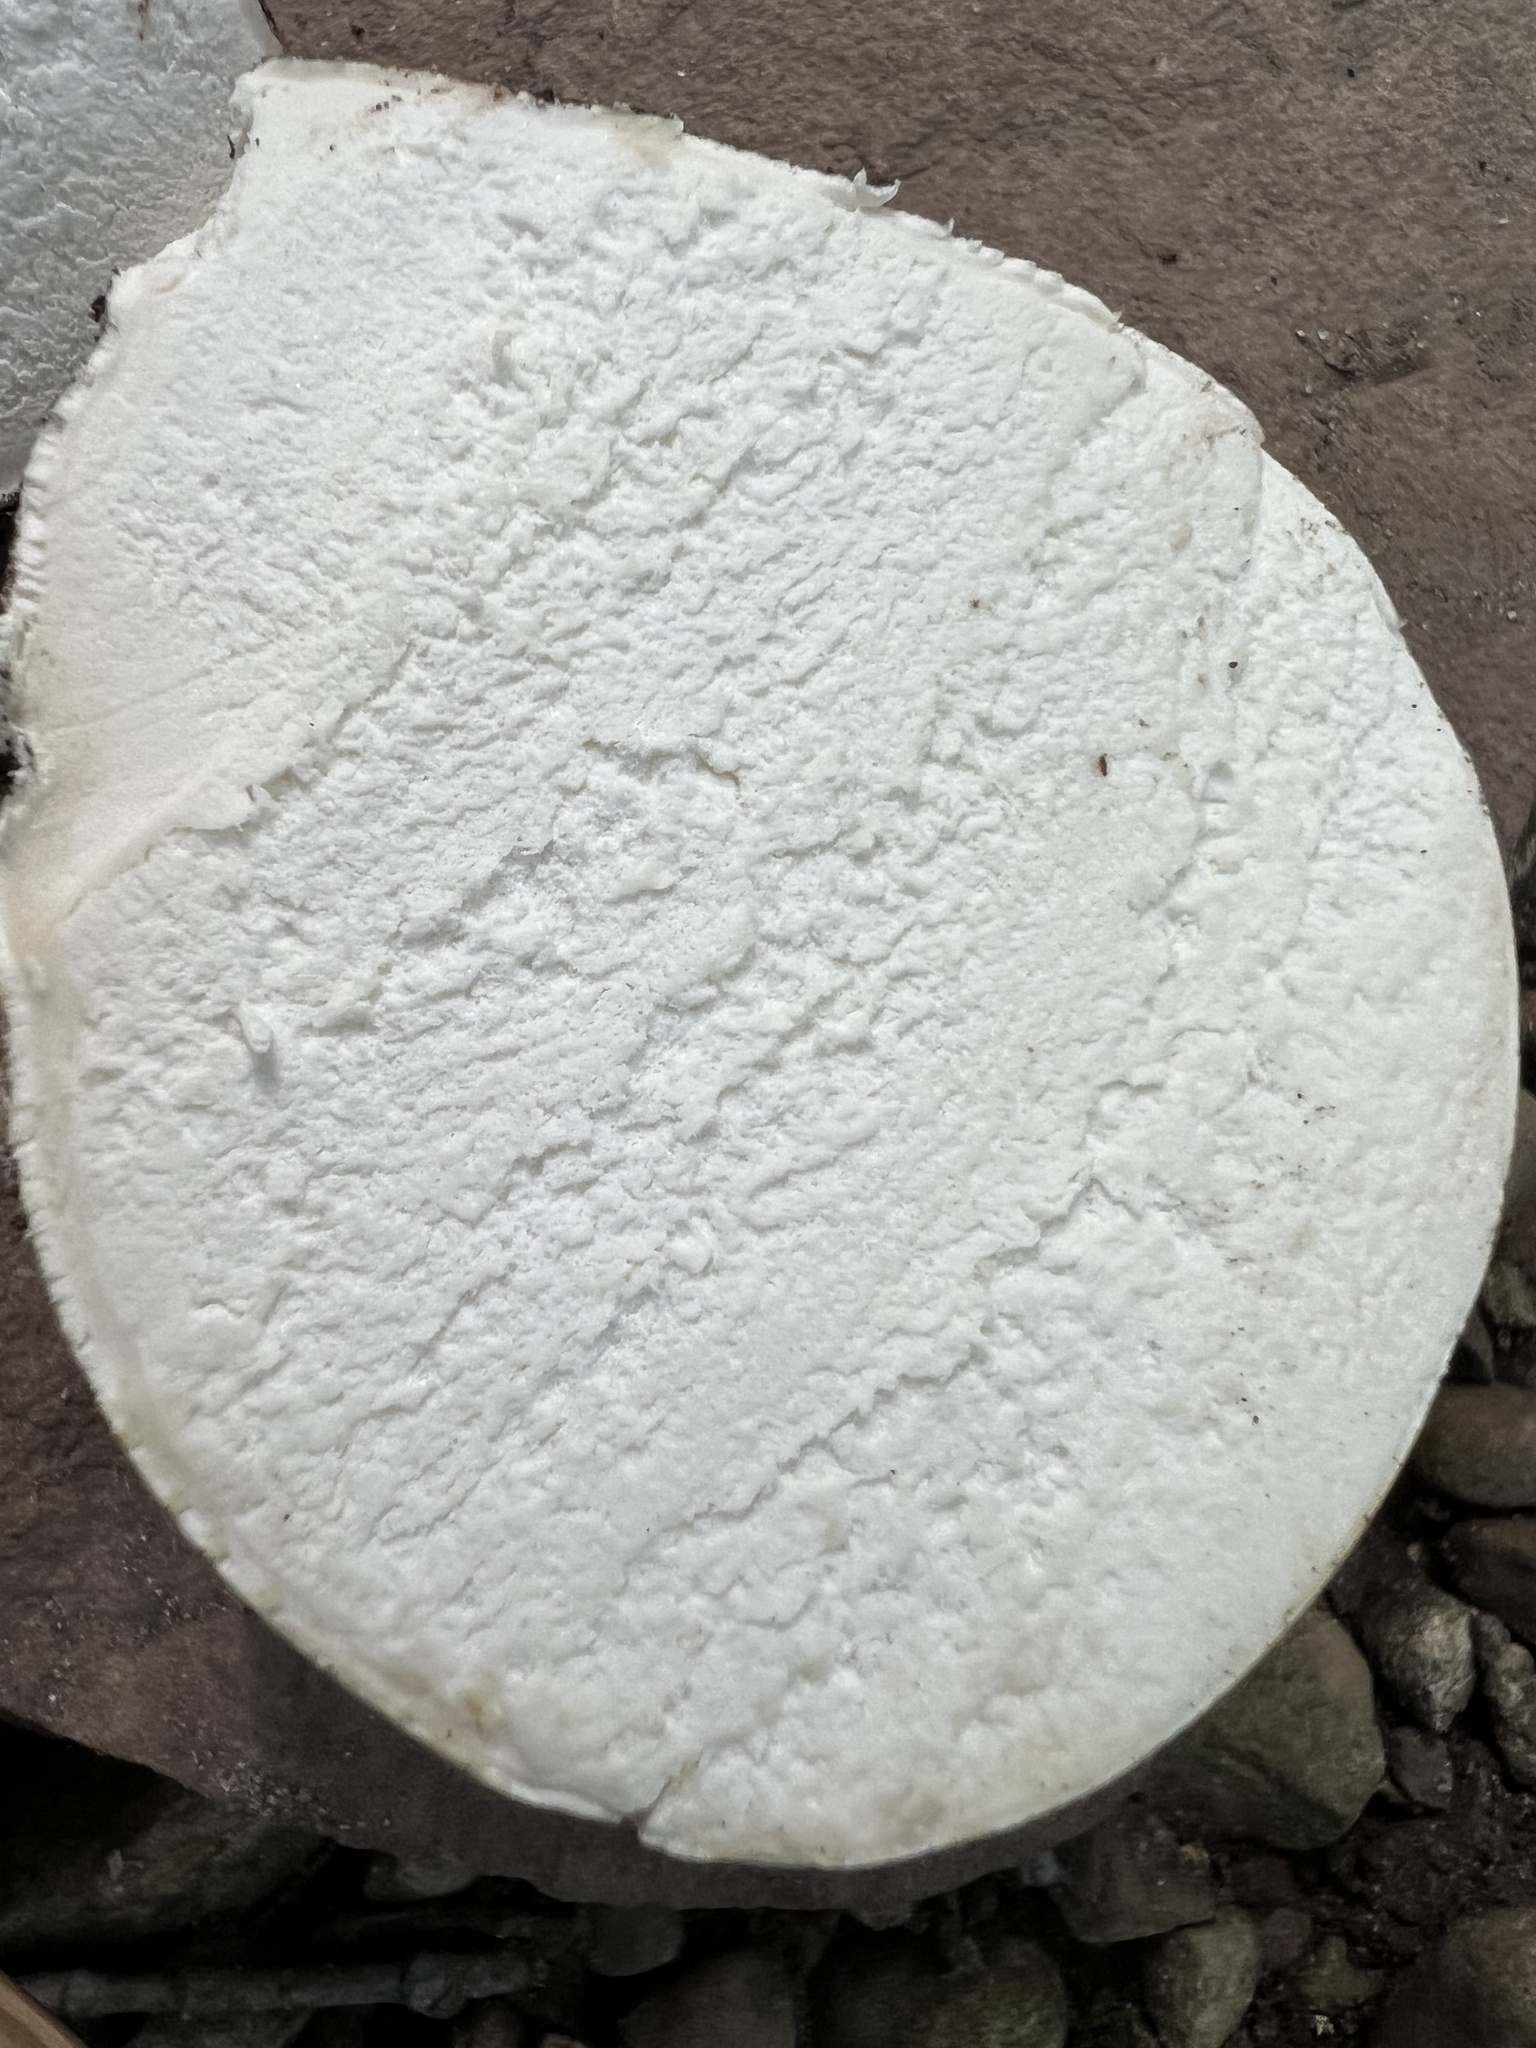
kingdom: Fungi
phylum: Basidiomycota
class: Agaricomycetes
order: Agaricales
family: Lycoperdaceae
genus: Calvatia
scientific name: Calvatia gigantea
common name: Giant puffball
